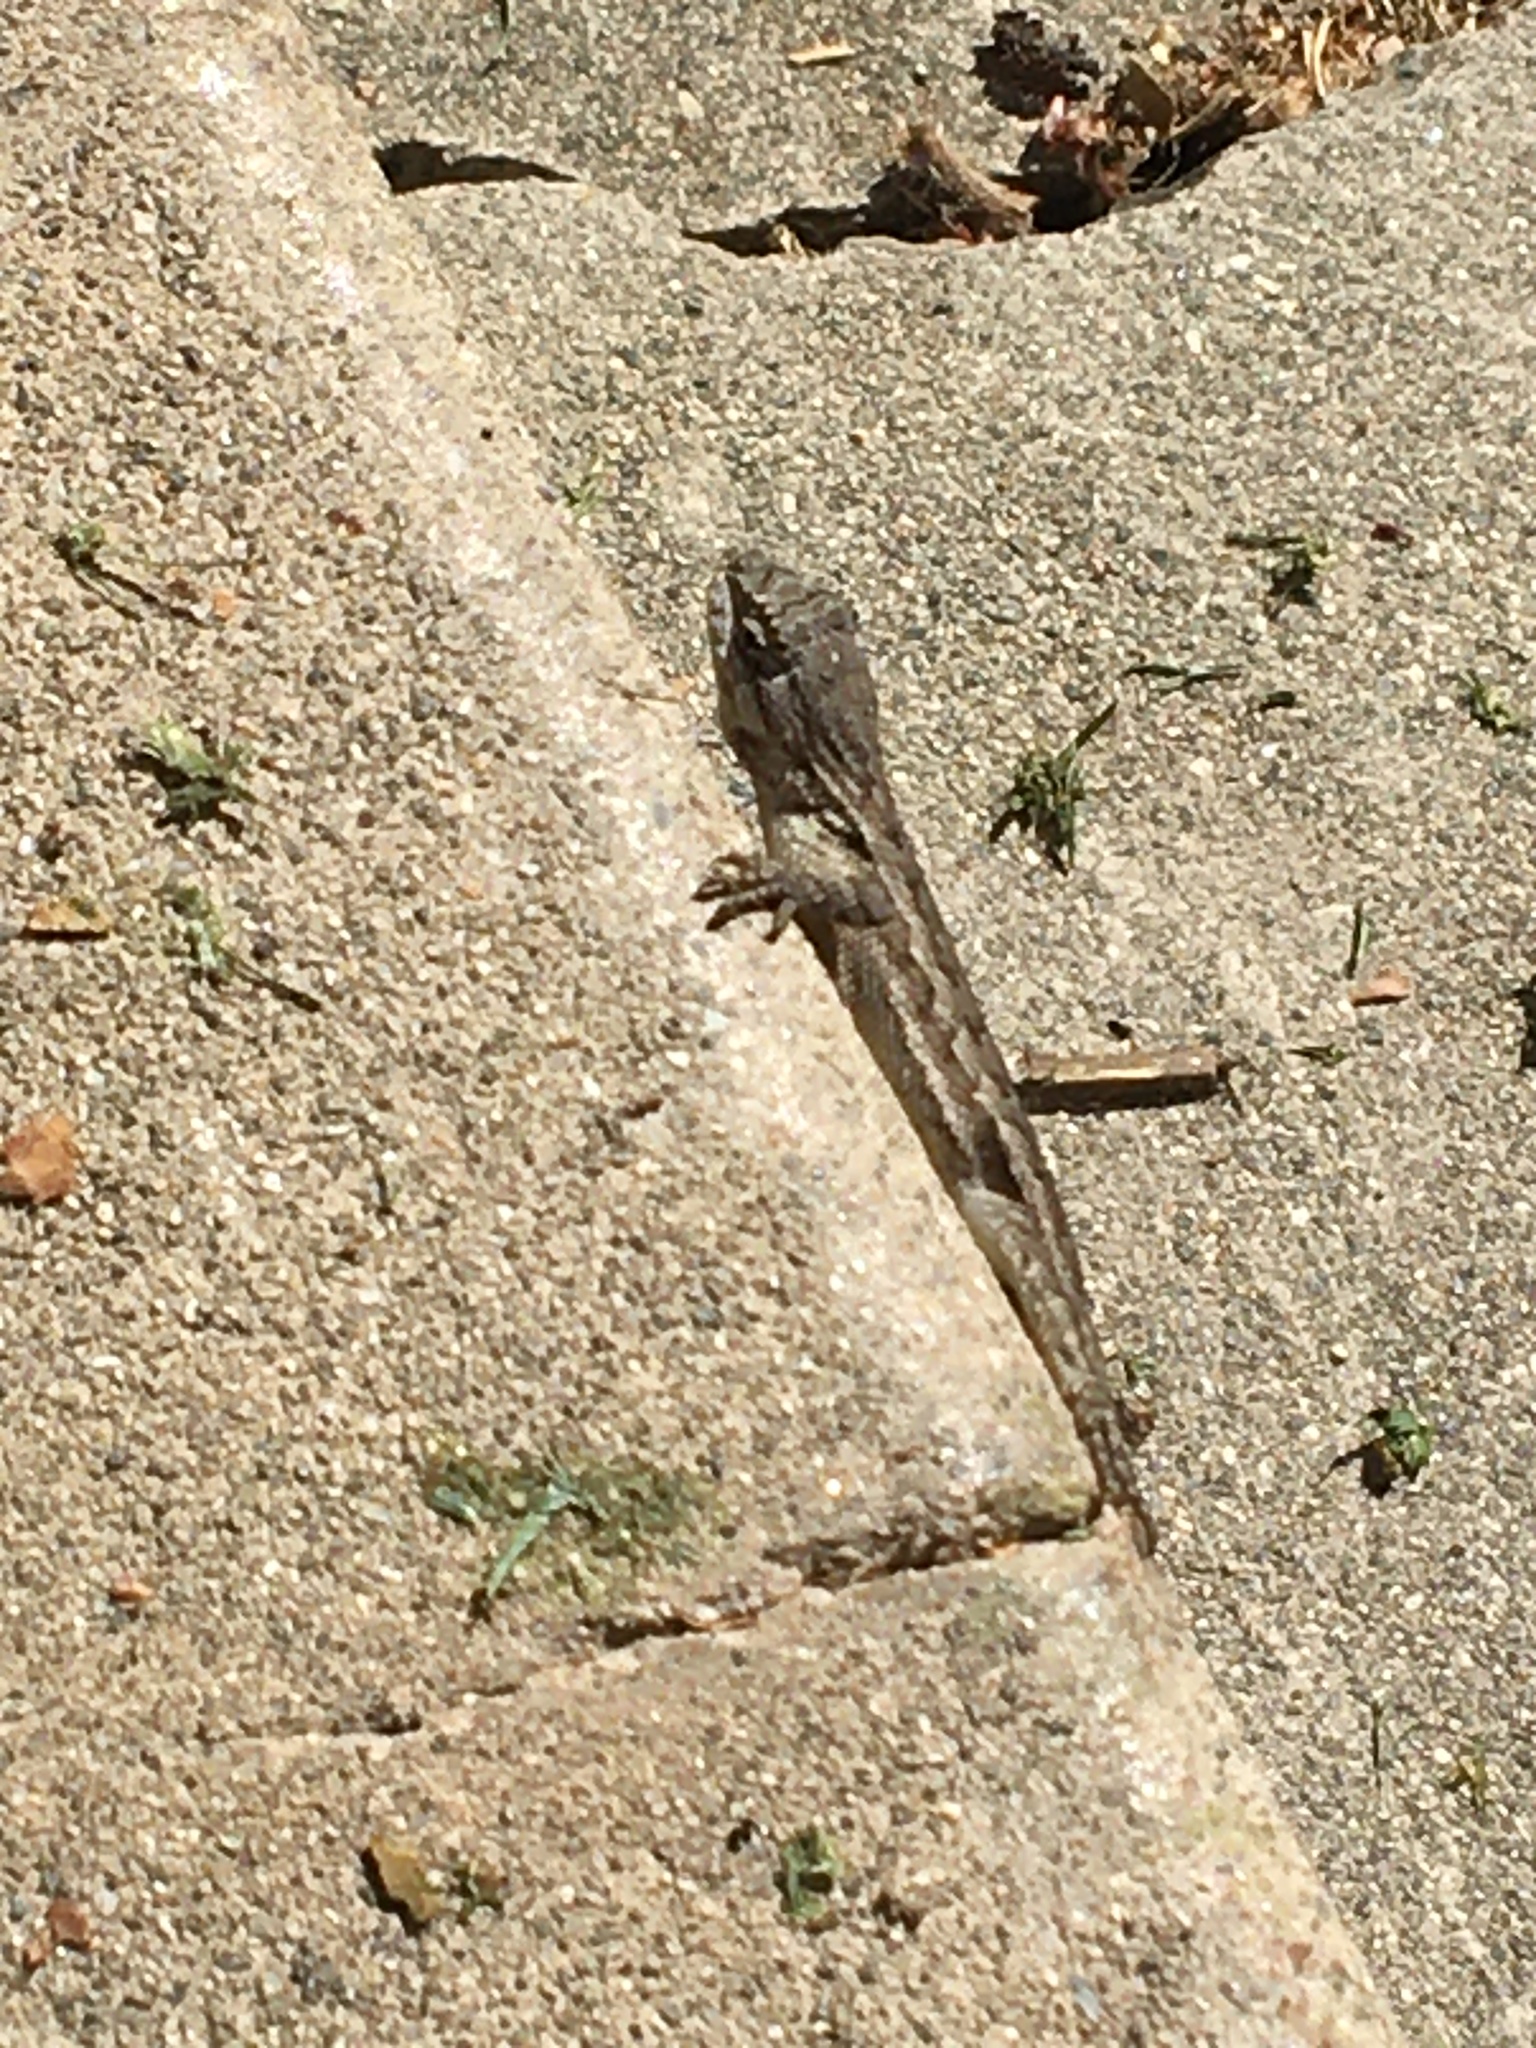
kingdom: Animalia
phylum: Chordata
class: Squamata
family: Phrynosomatidae
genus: Sceloporus
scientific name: Sceloporus occidentalis
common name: Western fence lizard
